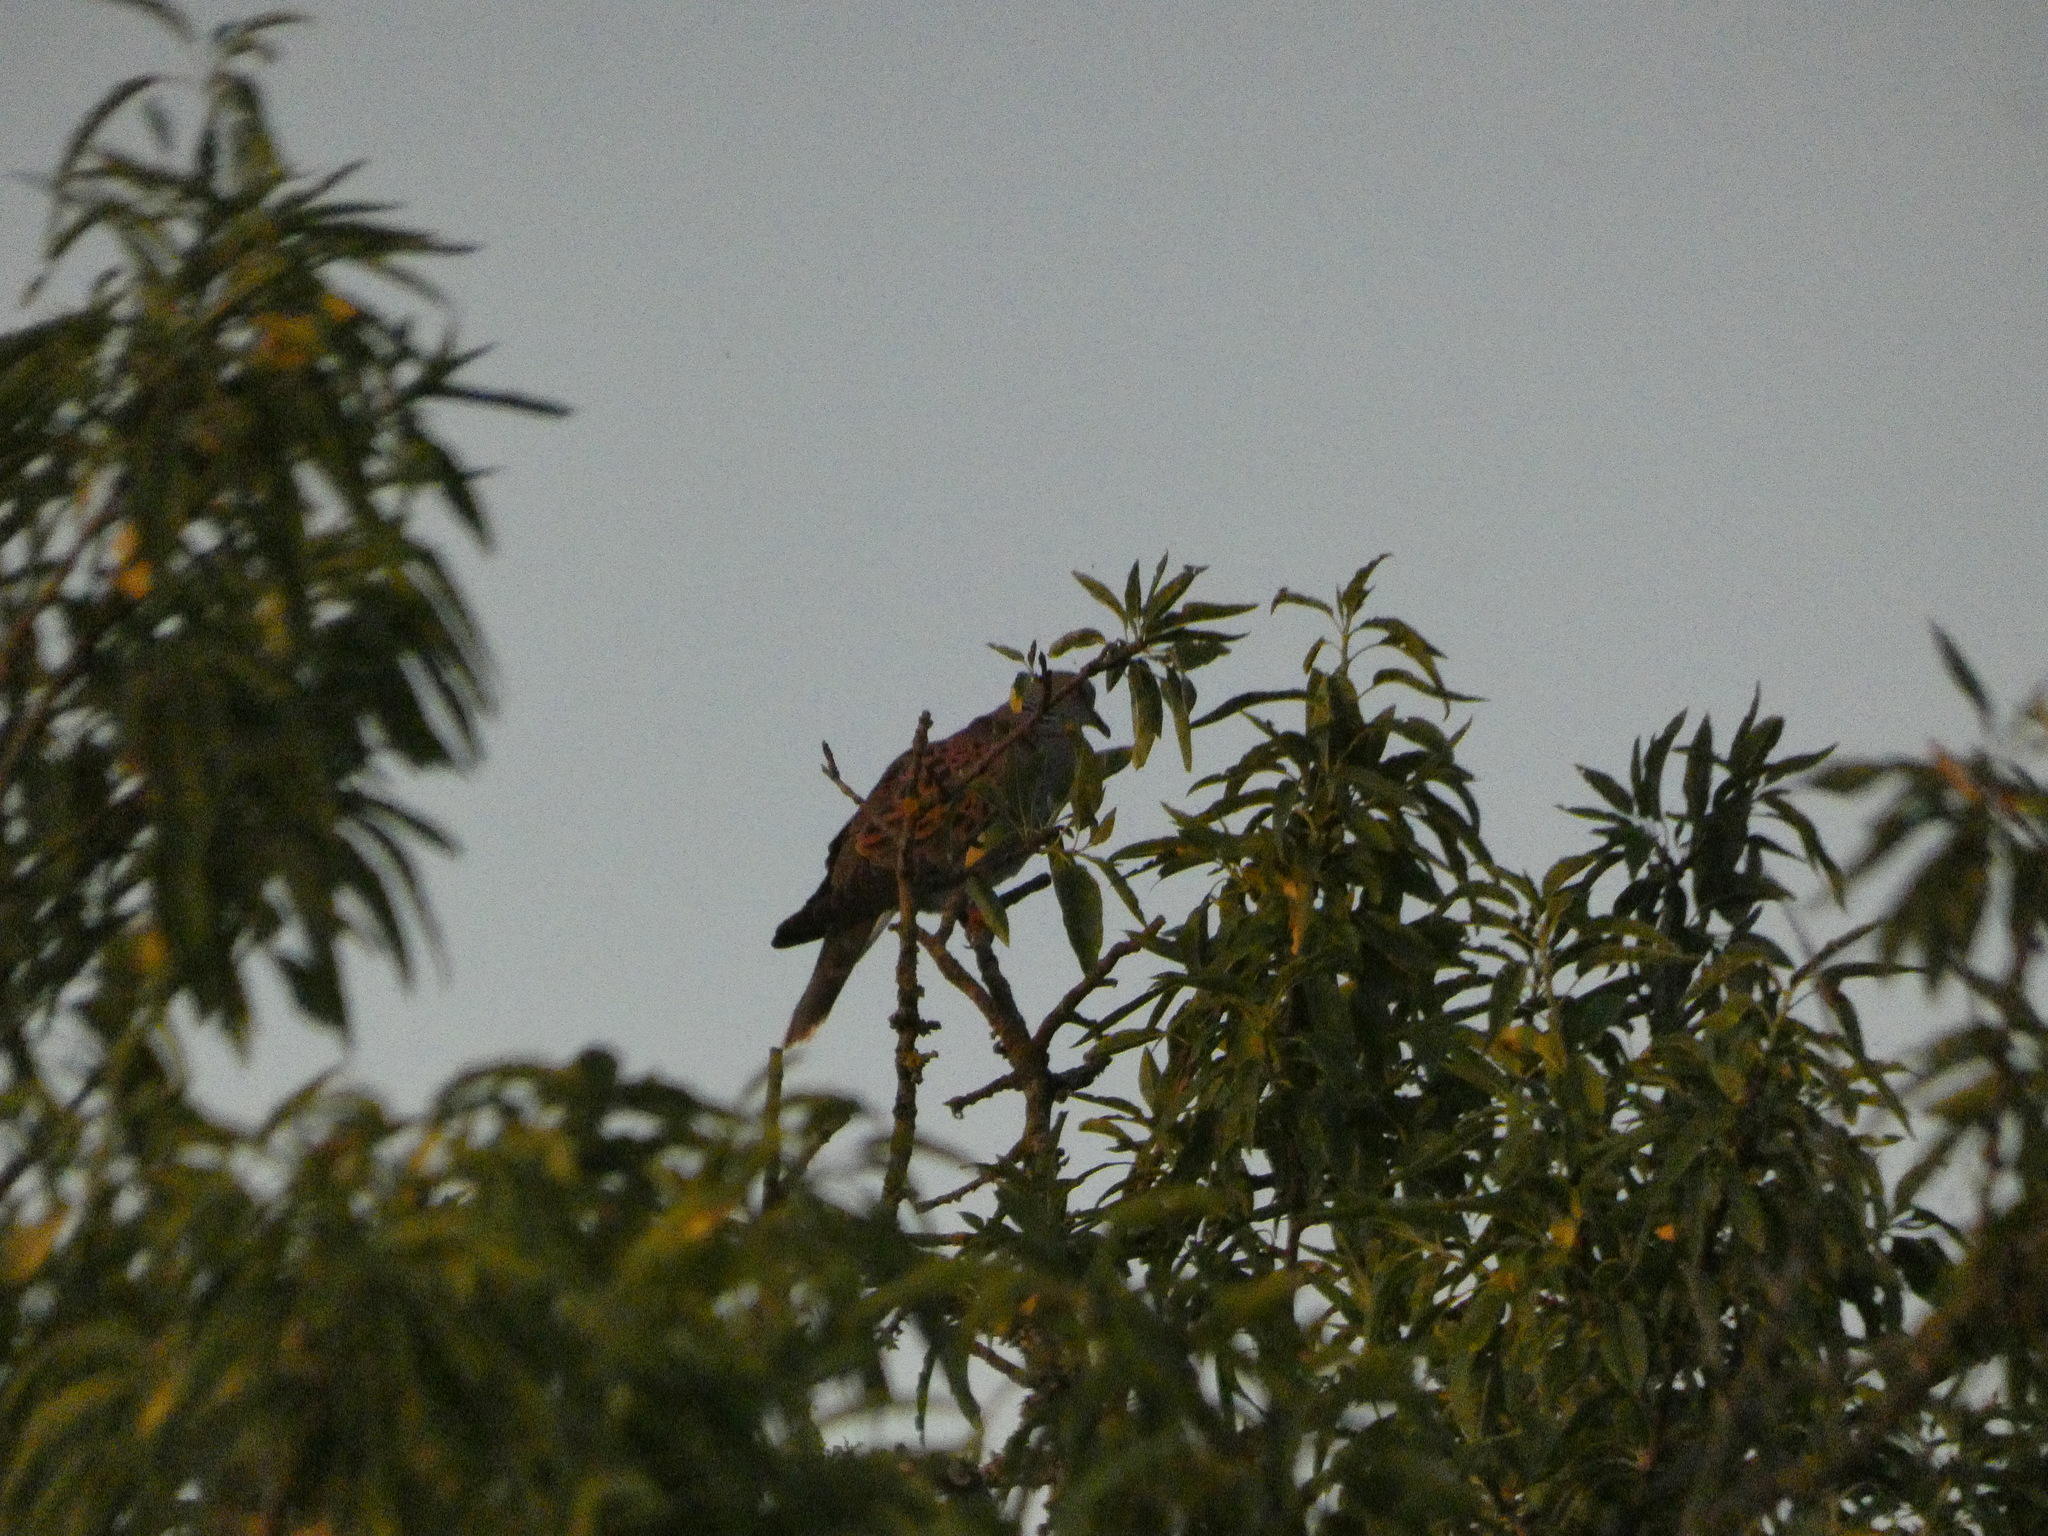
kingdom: Animalia
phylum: Chordata
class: Aves
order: Columbiformes
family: Columbidae
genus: Streptopelia
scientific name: Streptopelia turtur
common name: European turtle dove
